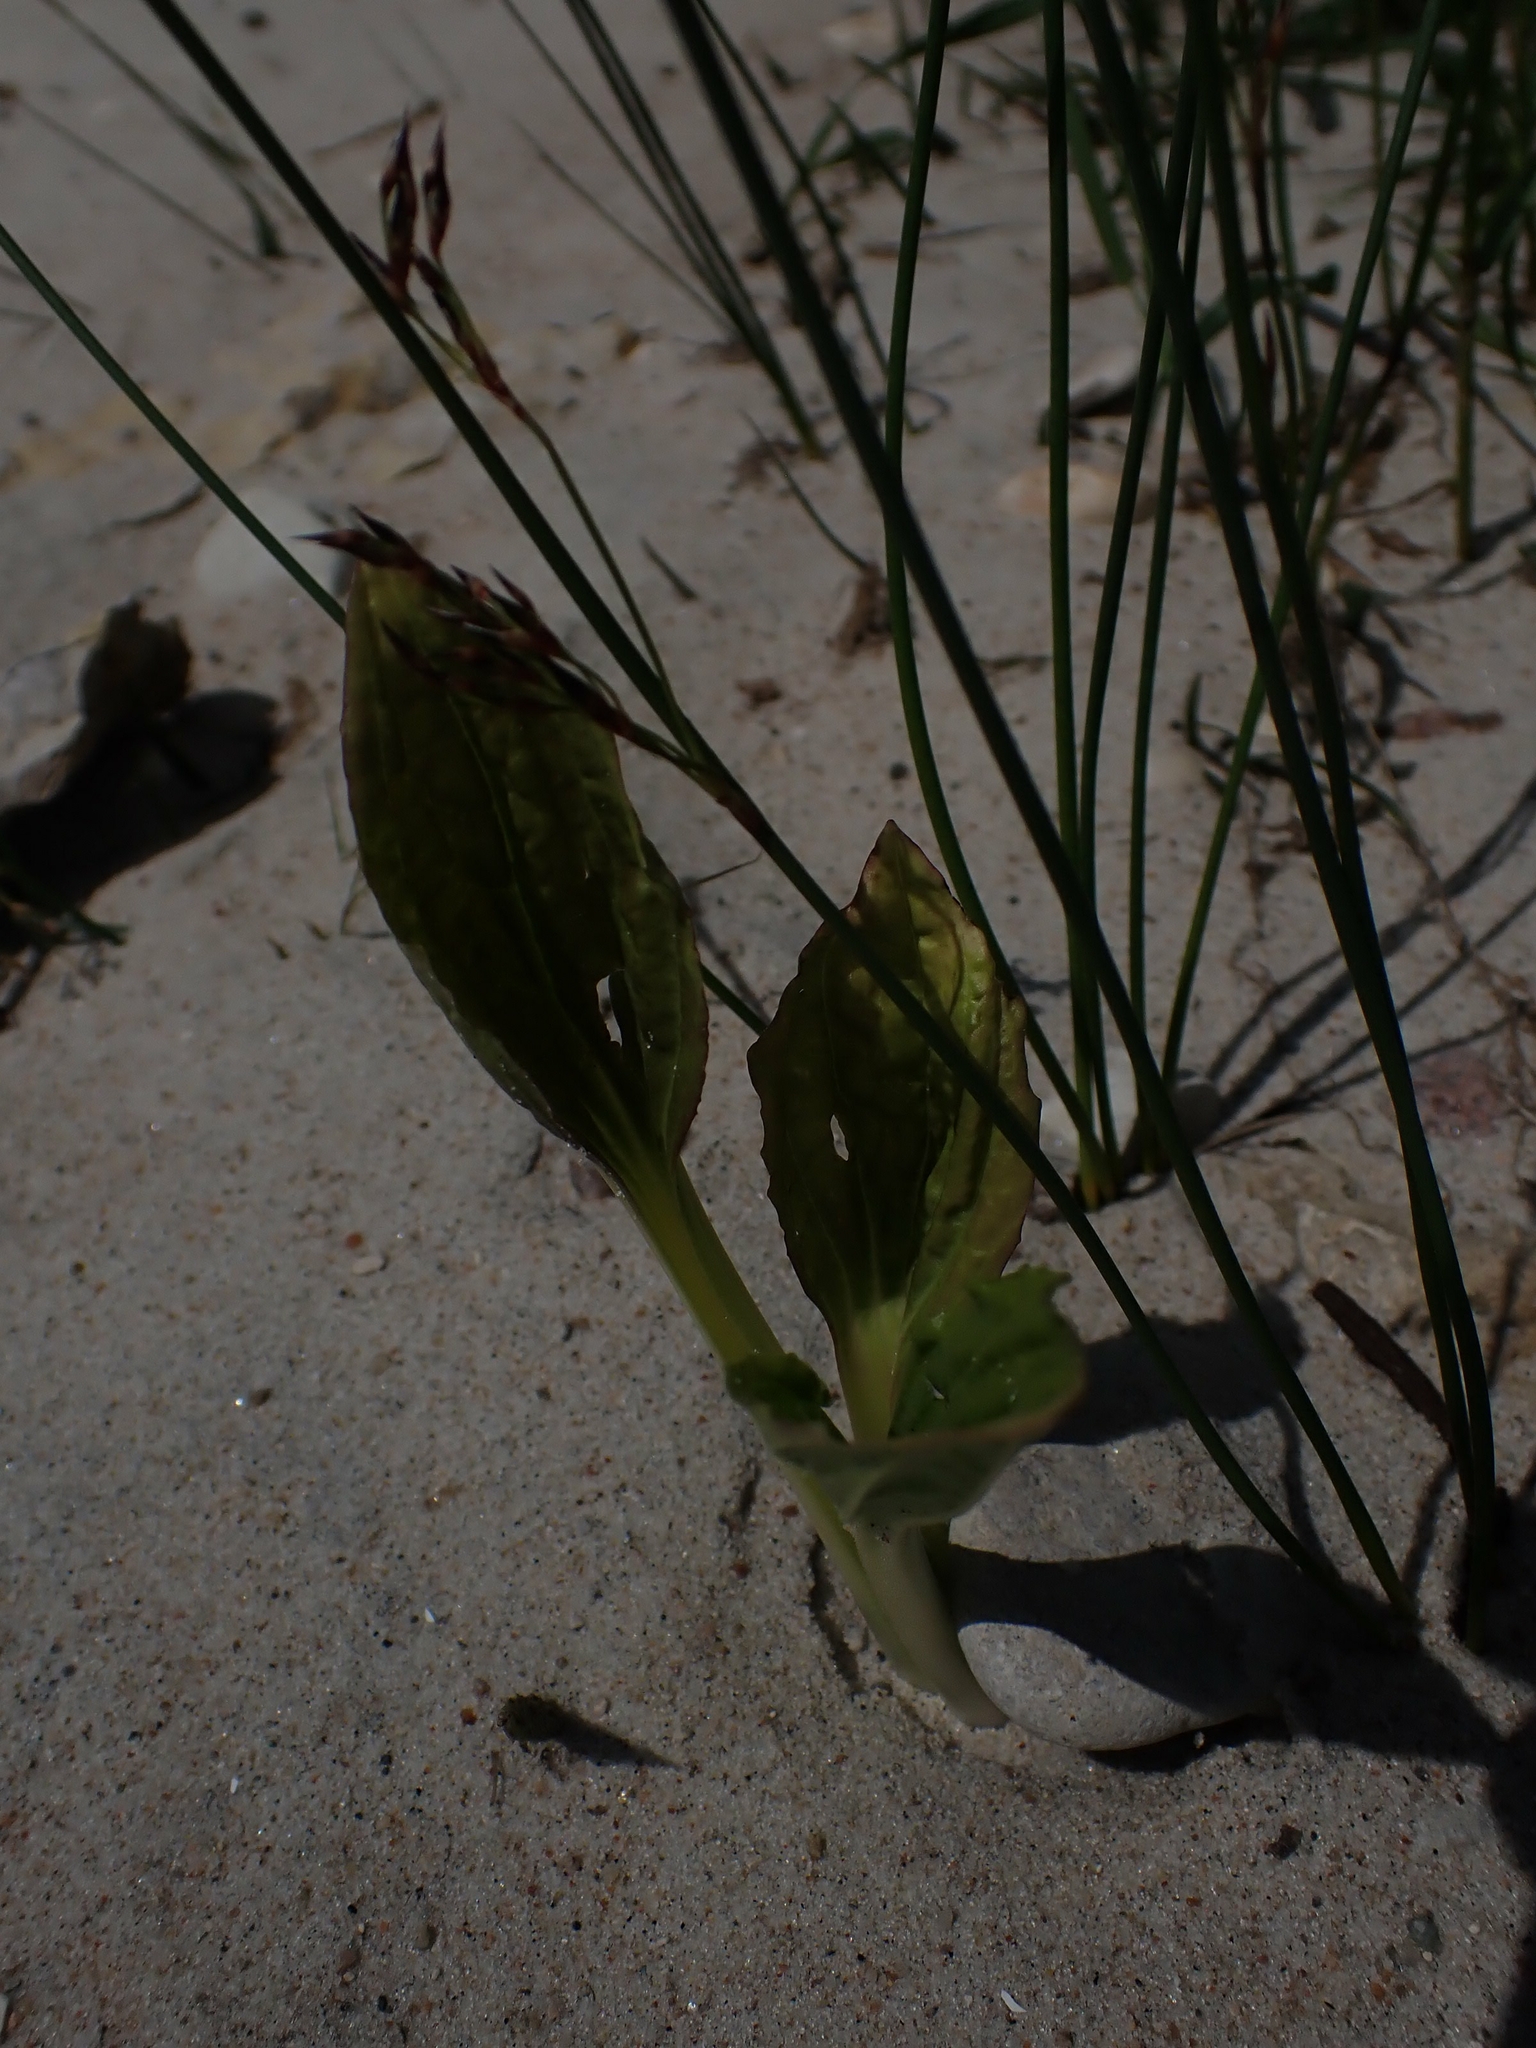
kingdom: Plantae
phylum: Tracheophyta
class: Magnoliopsida
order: Lamiales
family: Plantaginaceae
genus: Plantago
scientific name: Plantago major
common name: Common plantain
